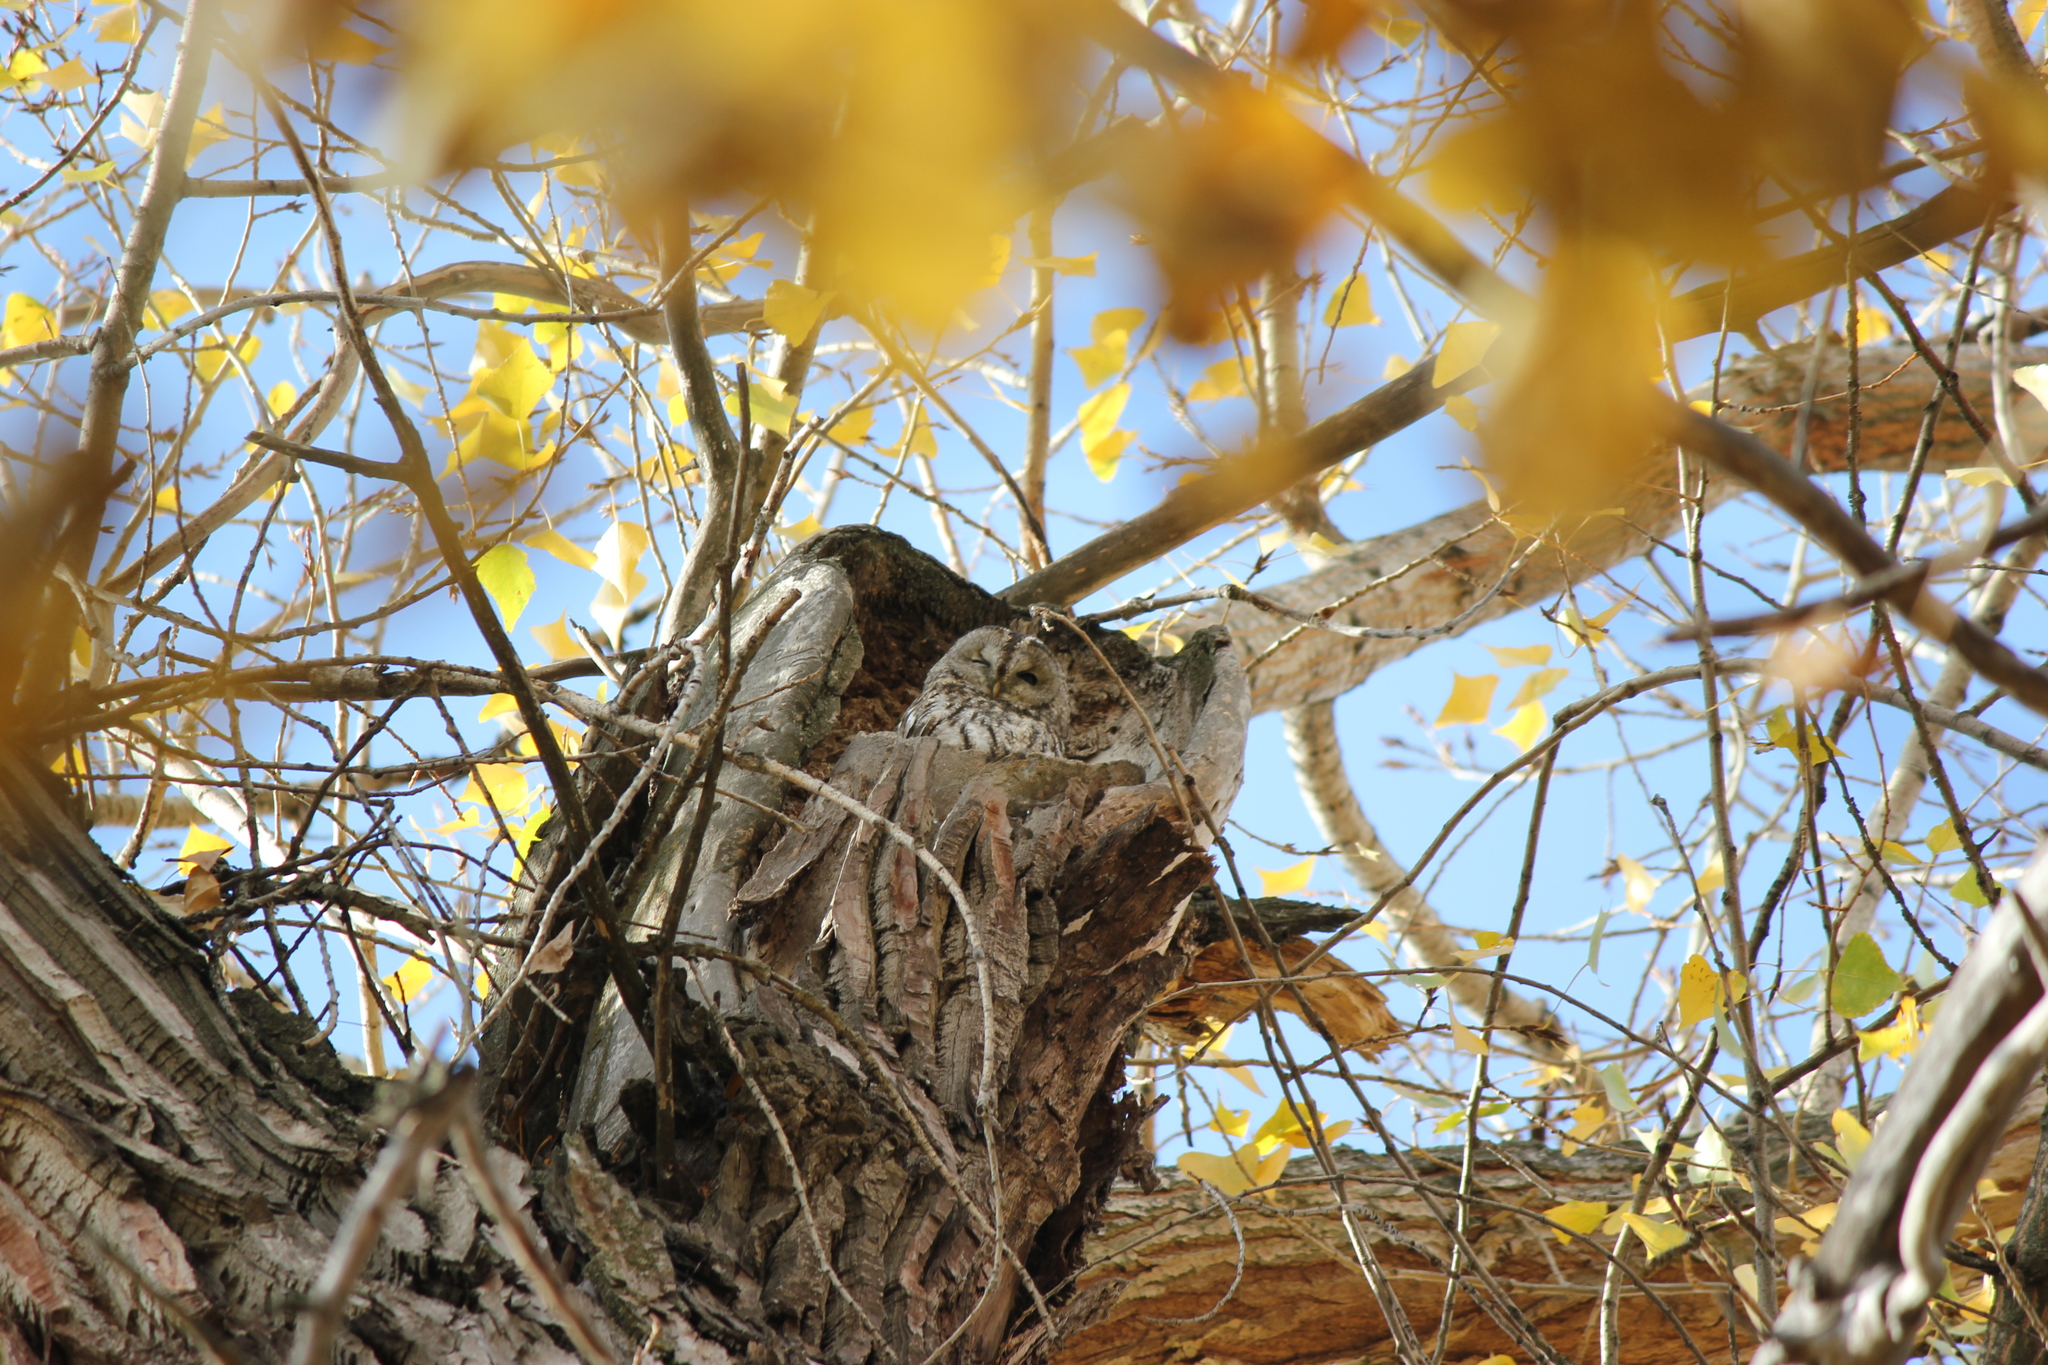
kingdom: Animalia
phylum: Chordata
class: Aves
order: Strigiformes
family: Strigidae
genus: Strix
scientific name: Strix aluco
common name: Tawny owl
